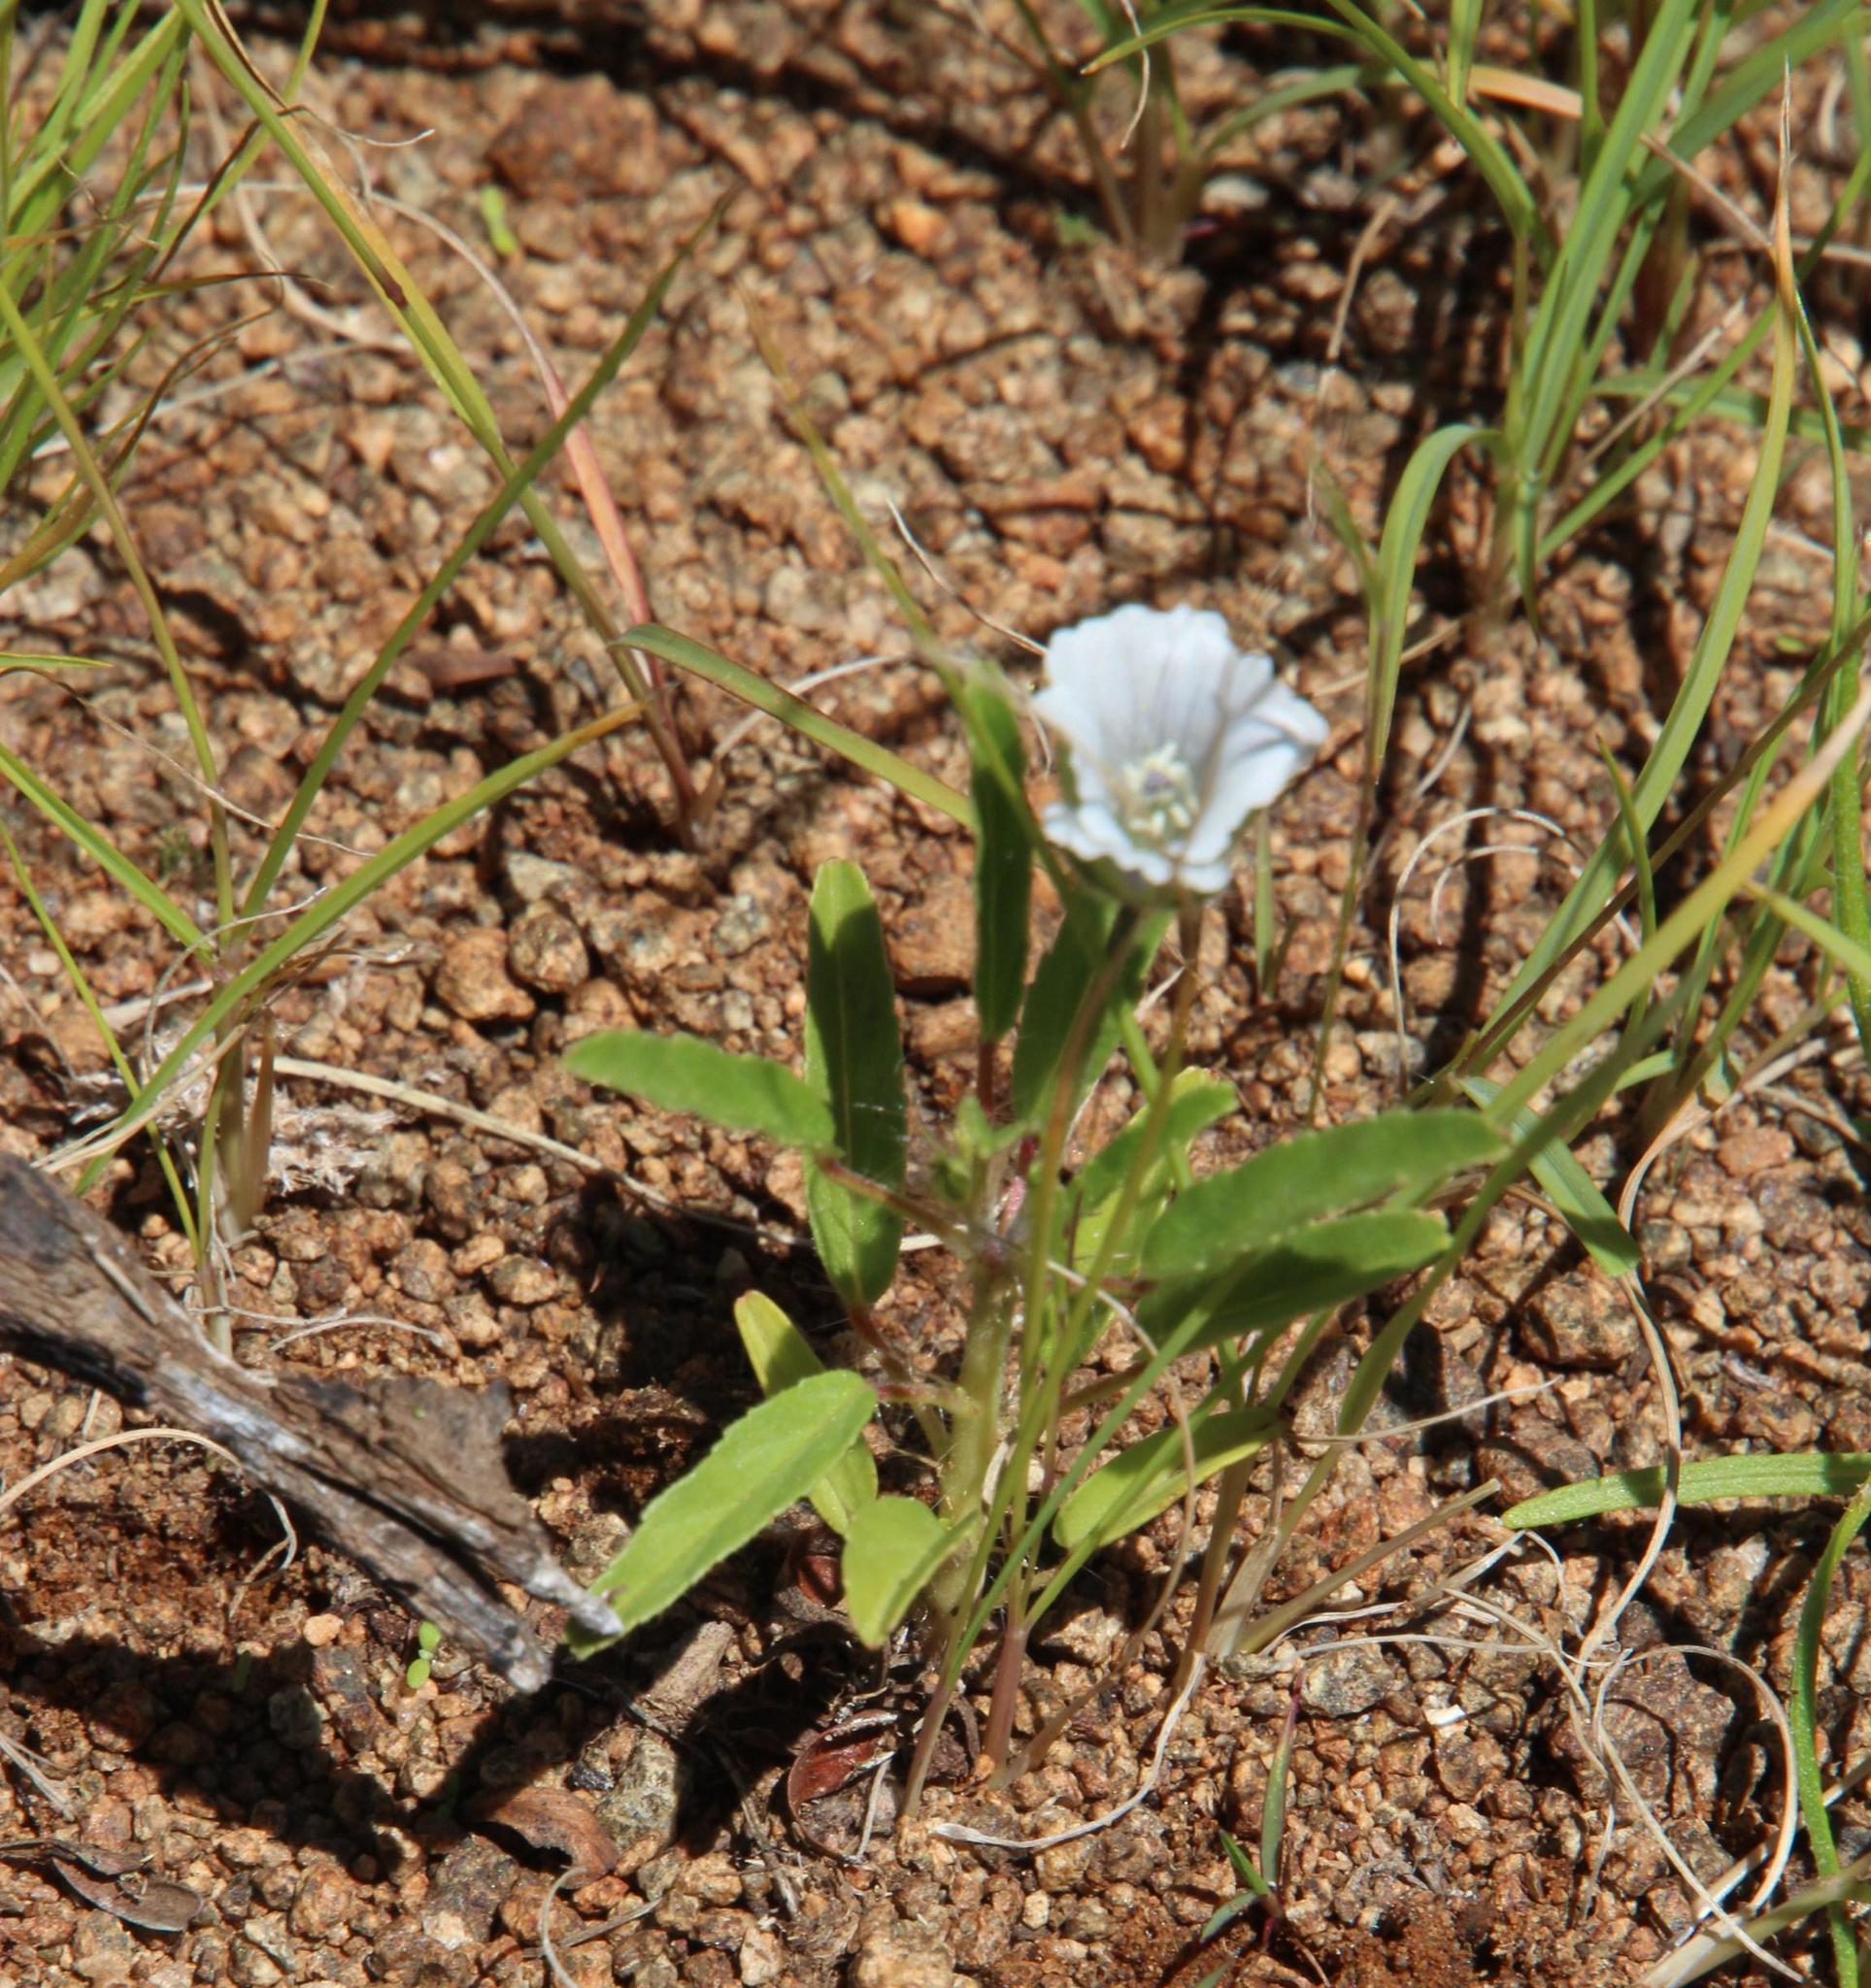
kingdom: Plantae
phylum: Tracheophyta
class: Magnoliopsida
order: Geraniales
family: Geraniaceae
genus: Monsonia
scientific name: Monsonia glauca
